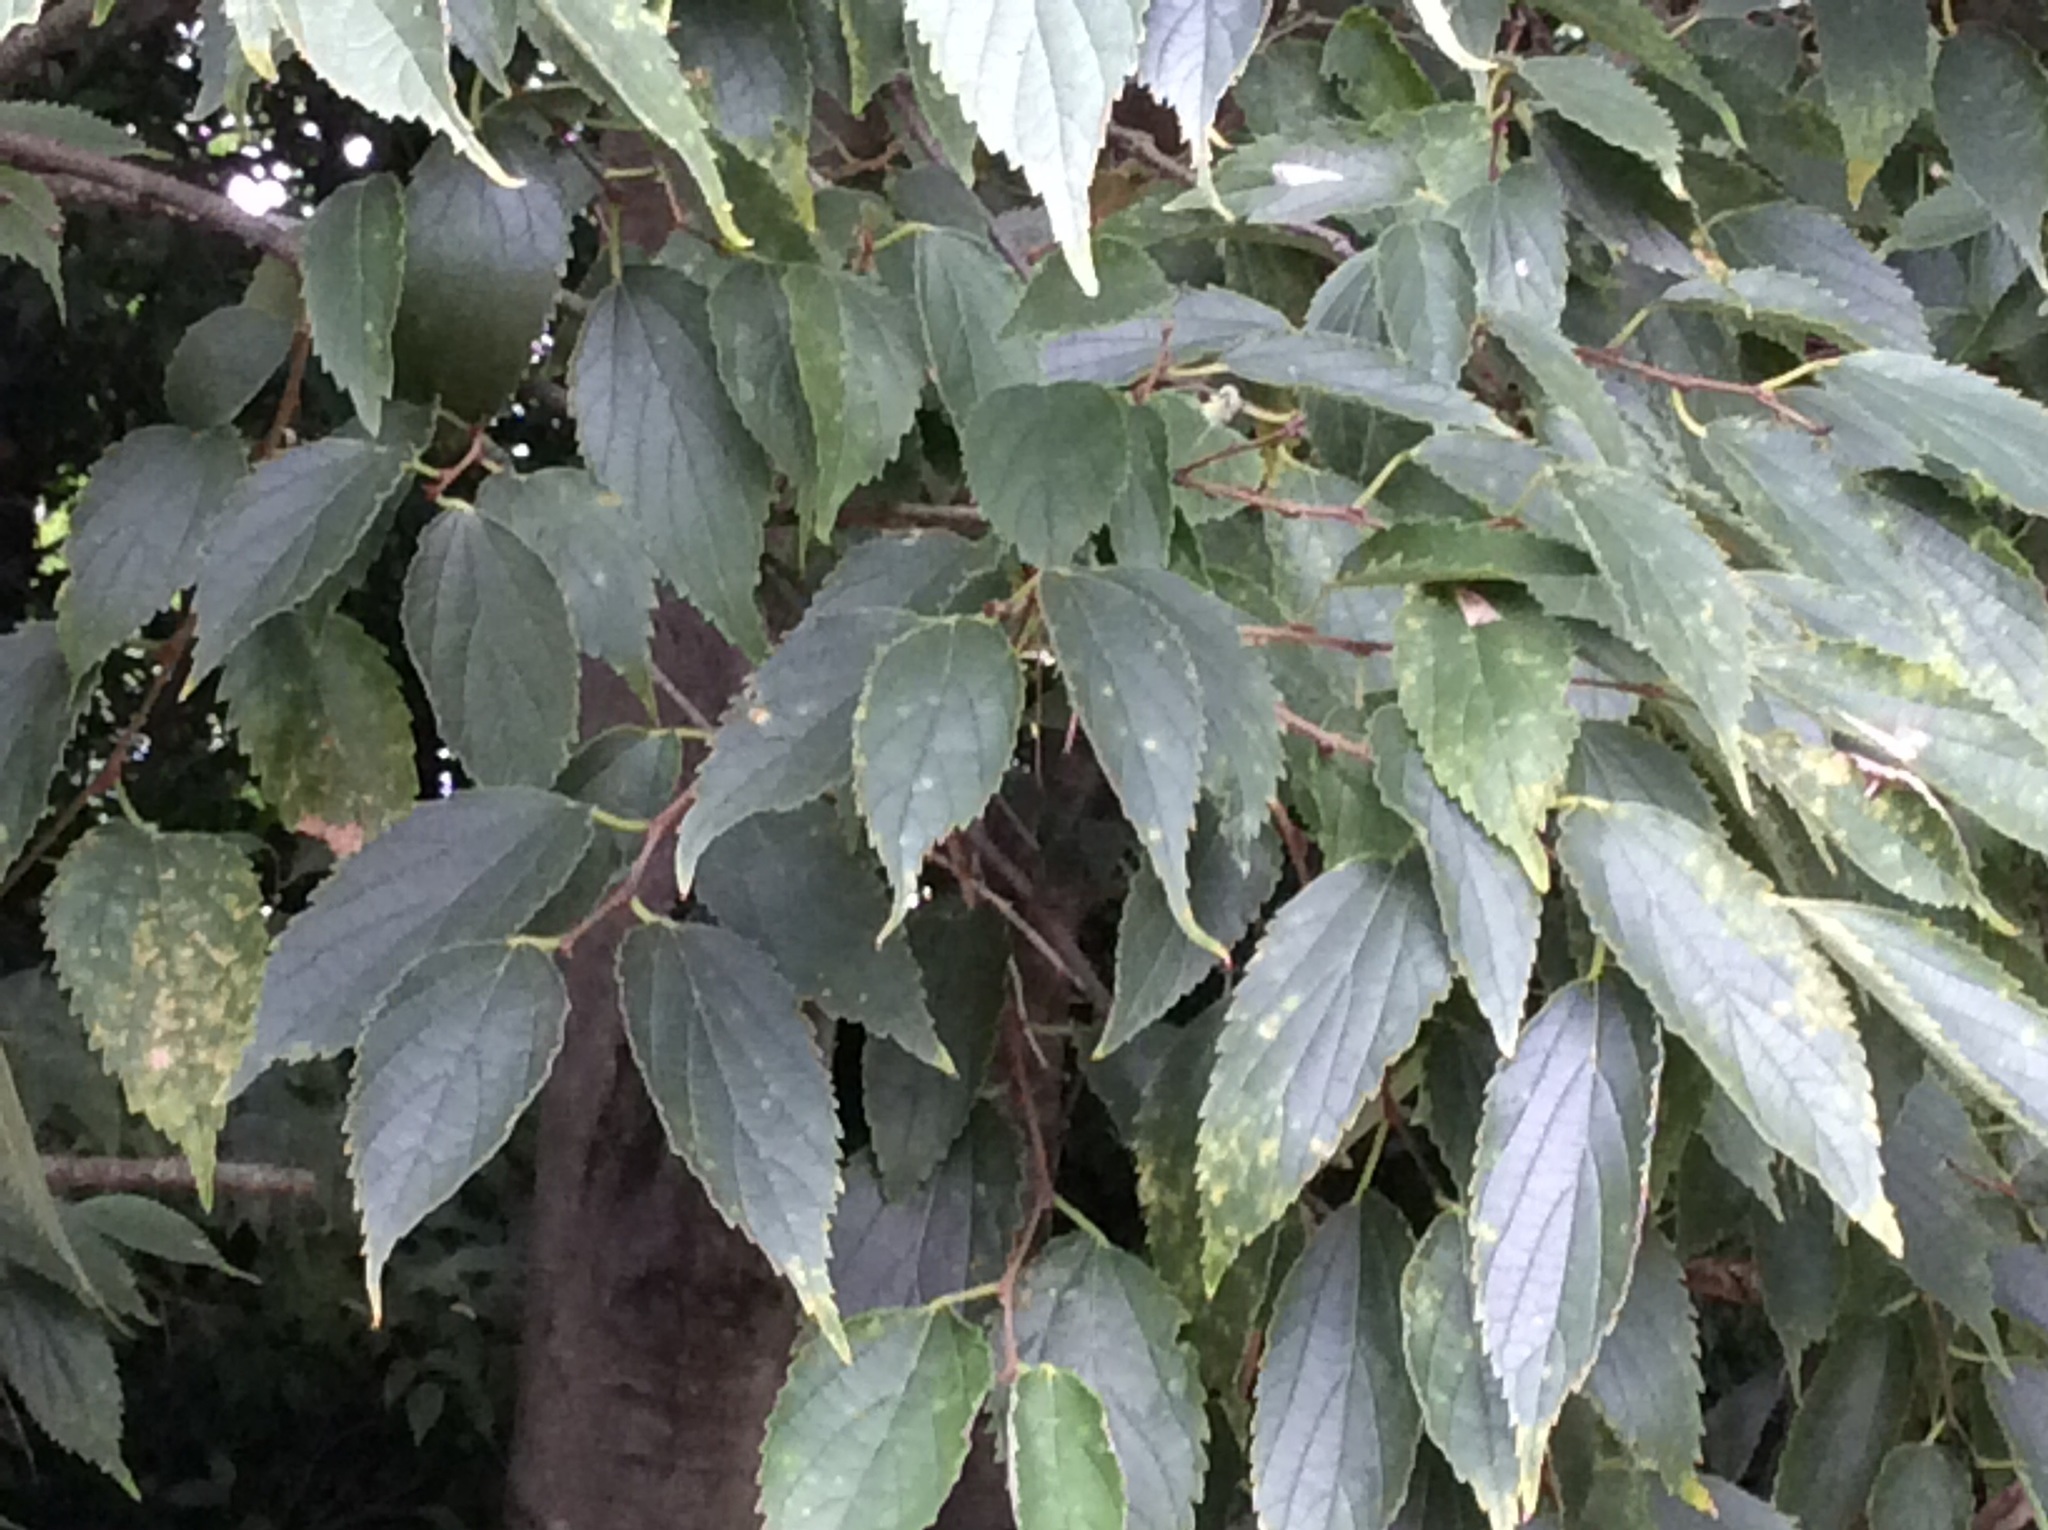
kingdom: Plantae
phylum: Tracheophyta
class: Magnoliopsida
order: Rosales
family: Cannabaceae
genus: Celtis
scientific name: Celtis australis
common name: European hackberry
